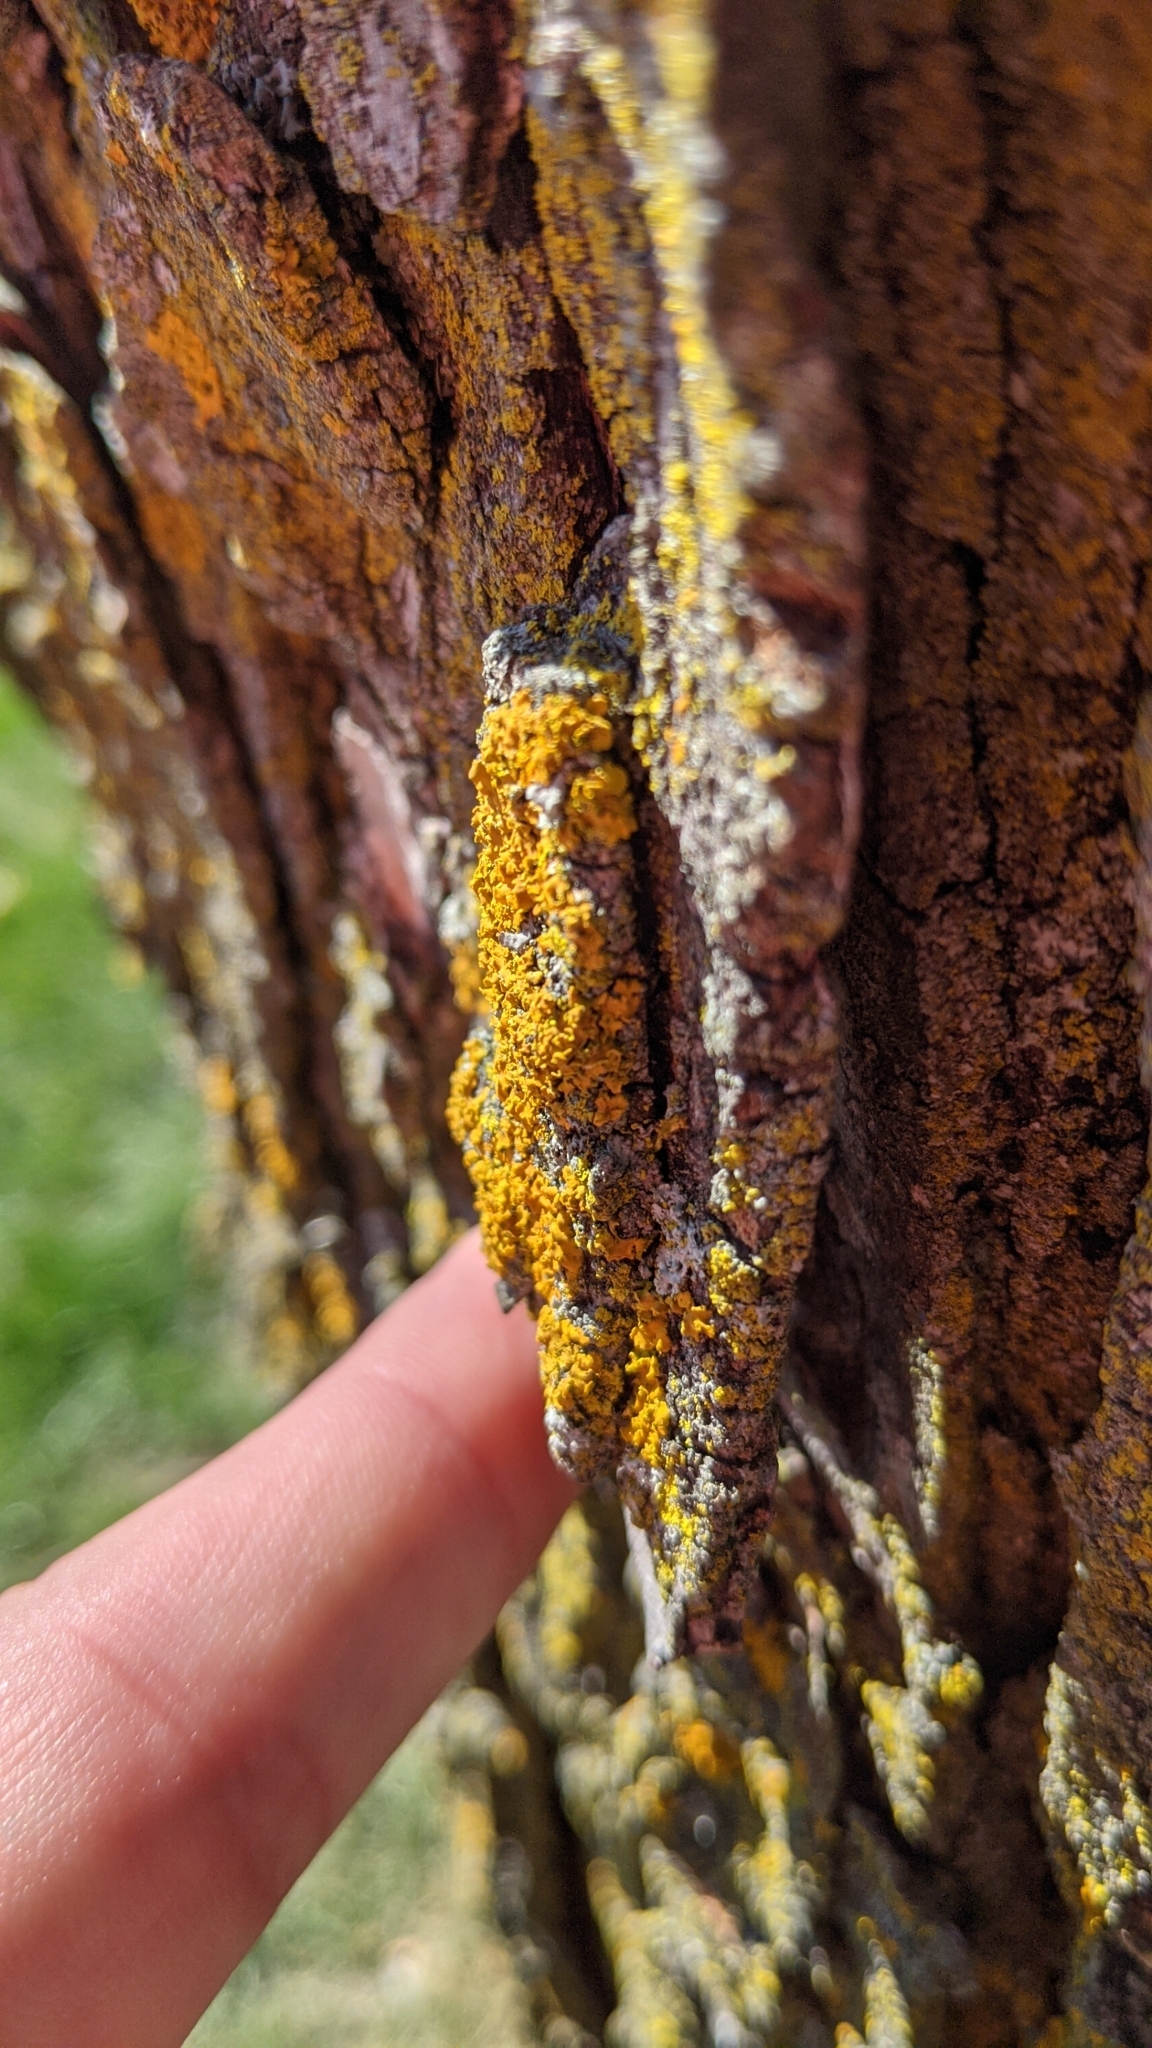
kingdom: Fungi
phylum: Ascomycota
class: Lecanoromycetes
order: Teloschistales
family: Teloschistaceae
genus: Oxneria
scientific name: Oxneria fallax
